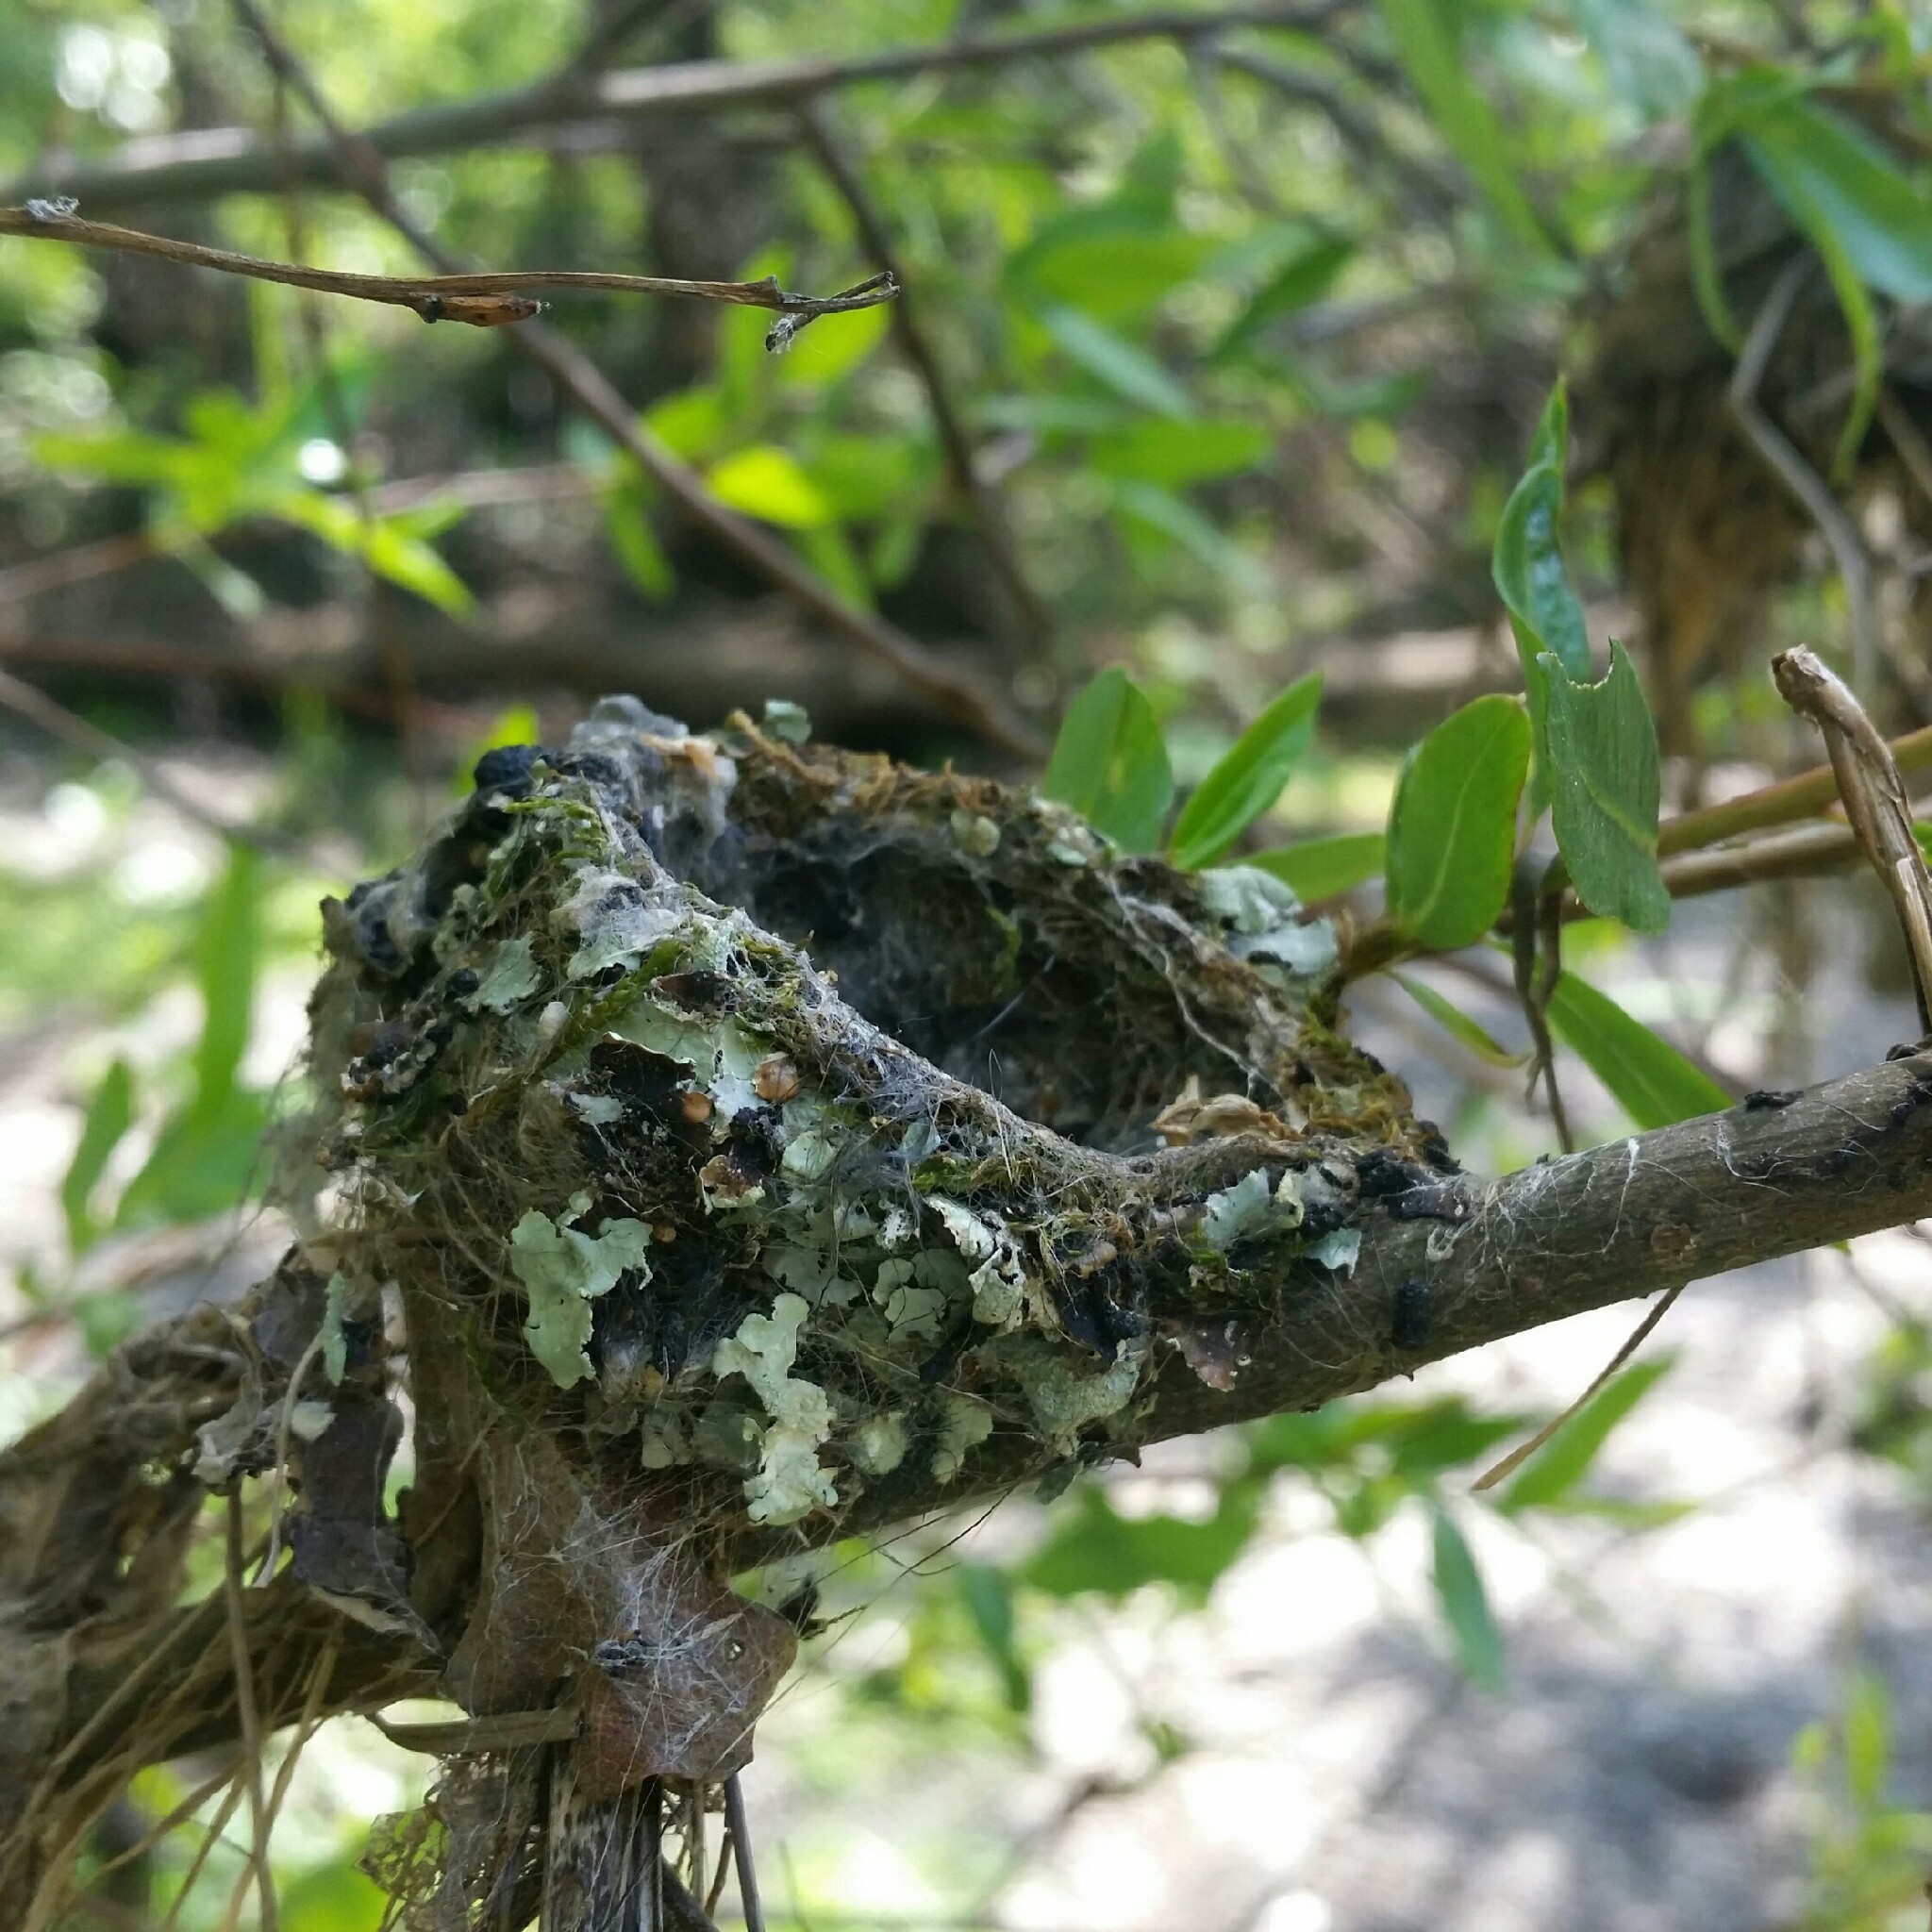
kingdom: Animalia
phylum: Chordata
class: Aves
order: Apodiformes
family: Trochilidae
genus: Calypte
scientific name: Calypte anna
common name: Anna's hummingbird
